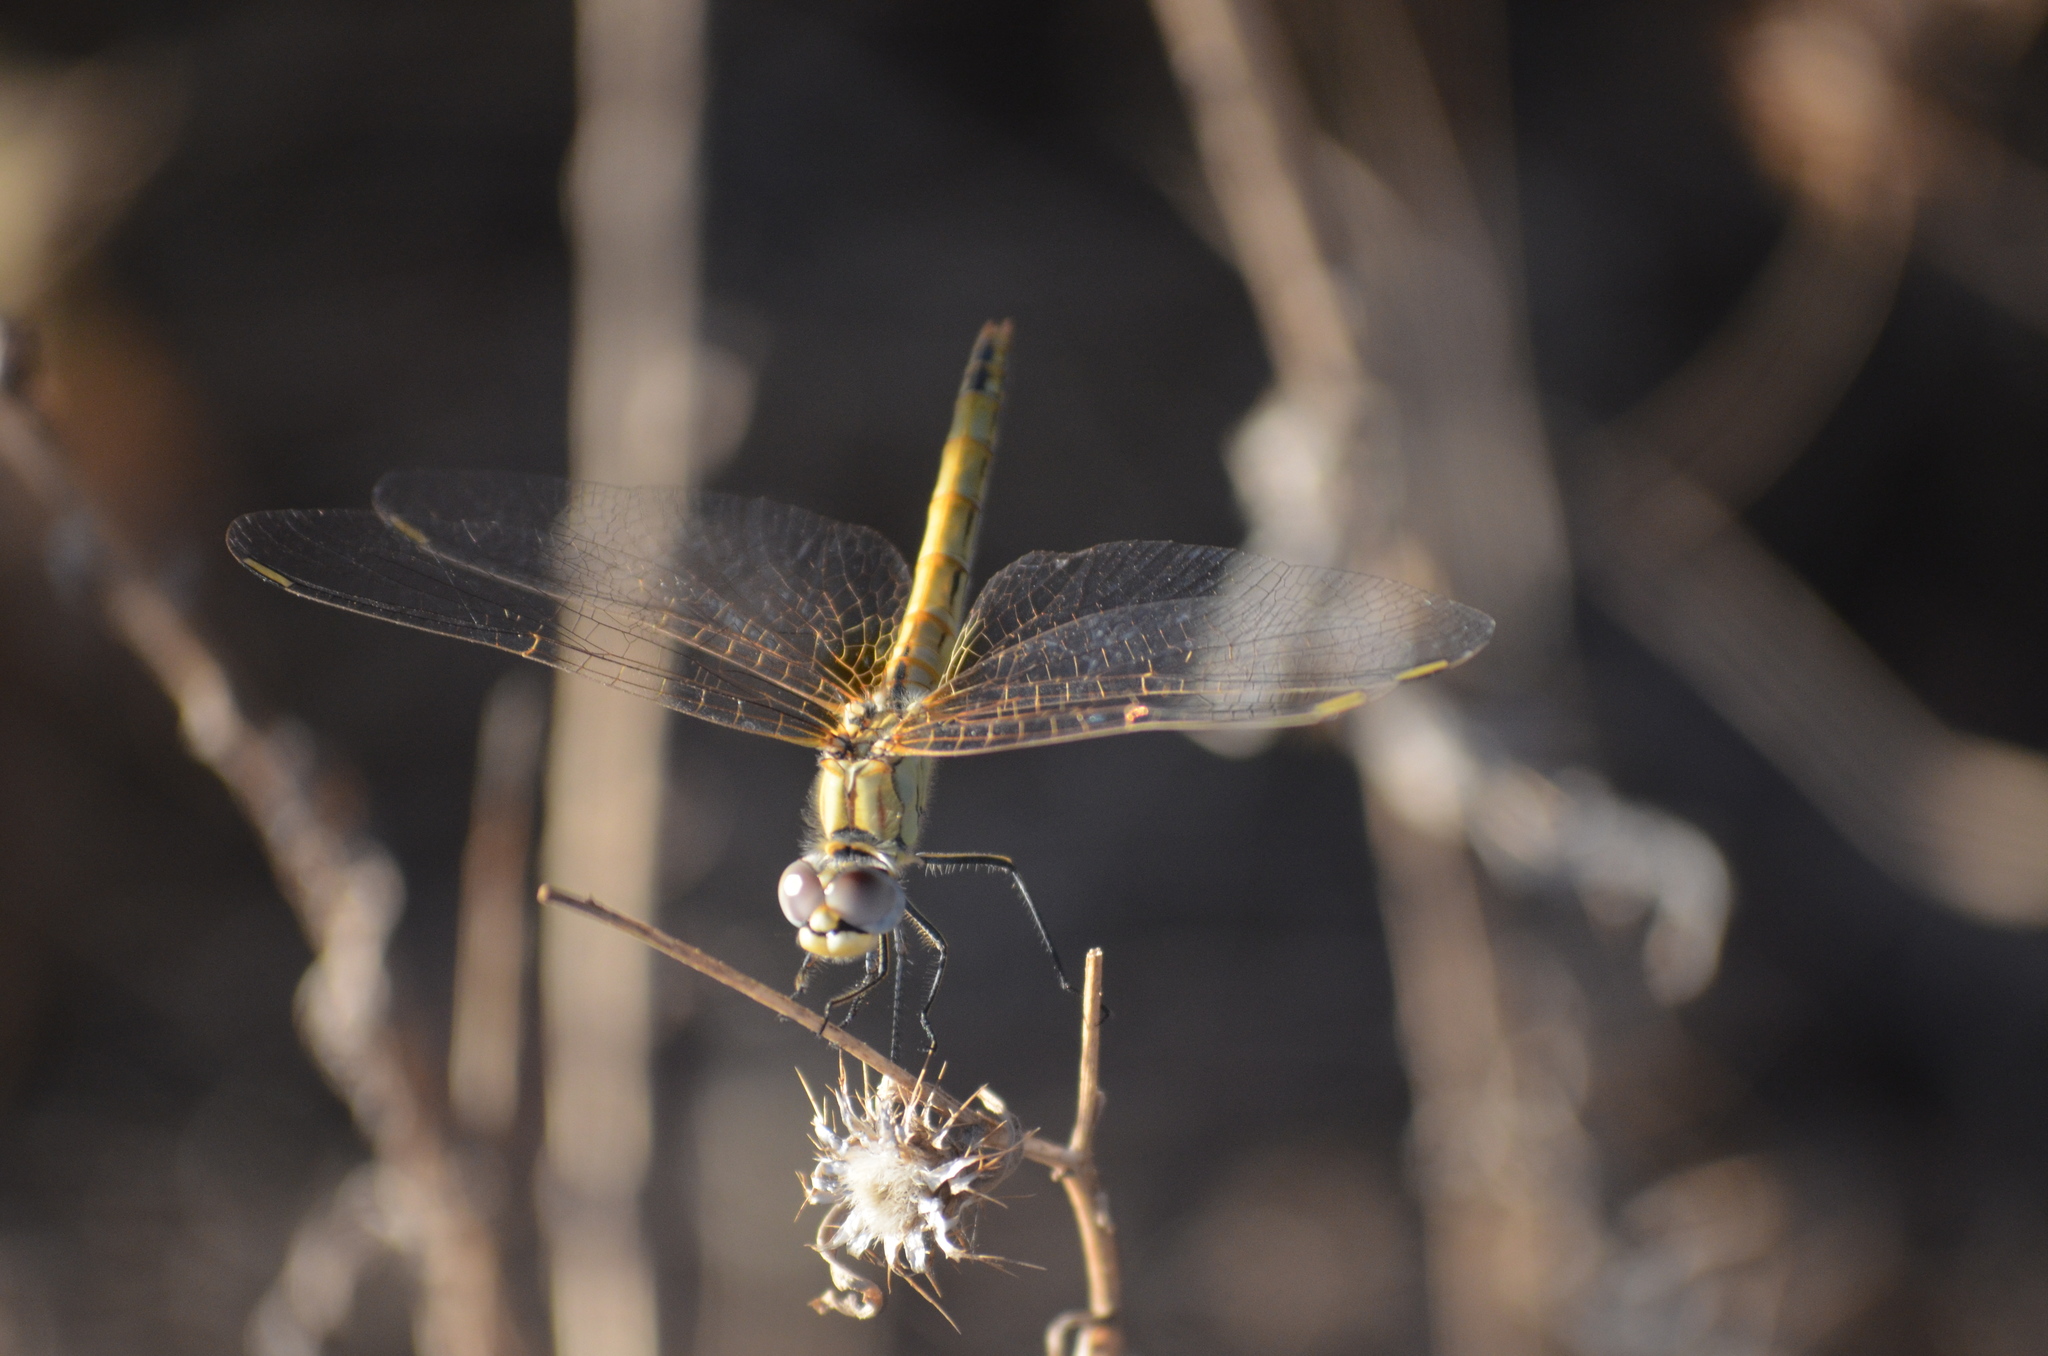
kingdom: Animalia
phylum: Arthropoda
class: Insecta
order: Odonata
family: Libellulidae
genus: Sympetrum
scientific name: Sympetrum fonscolombii
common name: Red-veined darter
